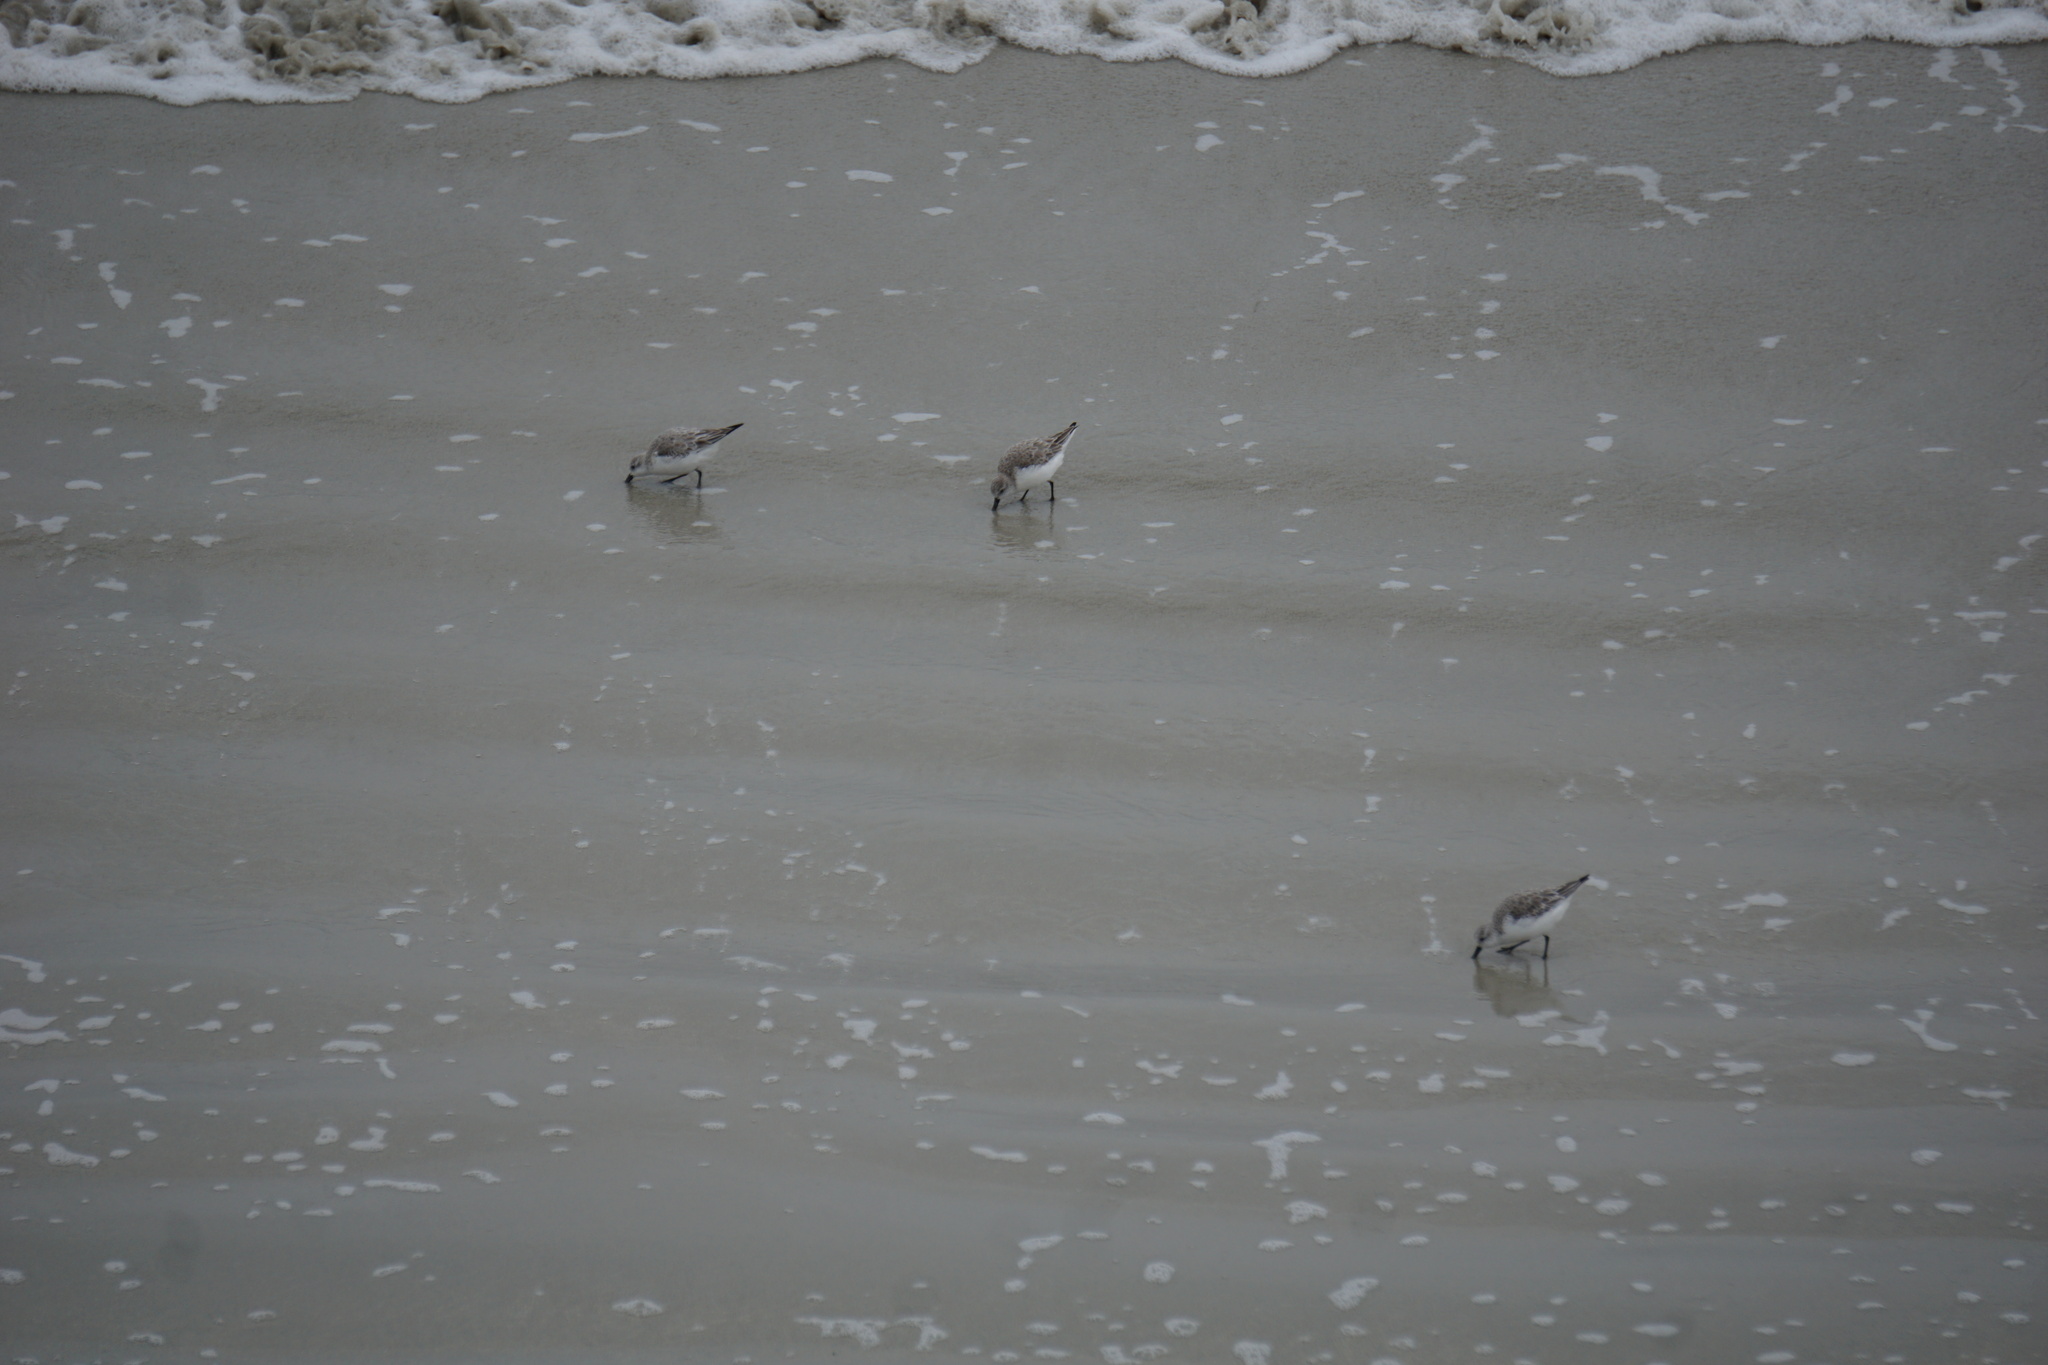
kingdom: Animalia
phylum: Chordata
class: Aves
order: Charadriiformes
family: Scolopacidae
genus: Calidris
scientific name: Calidris alba
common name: Sanderling
